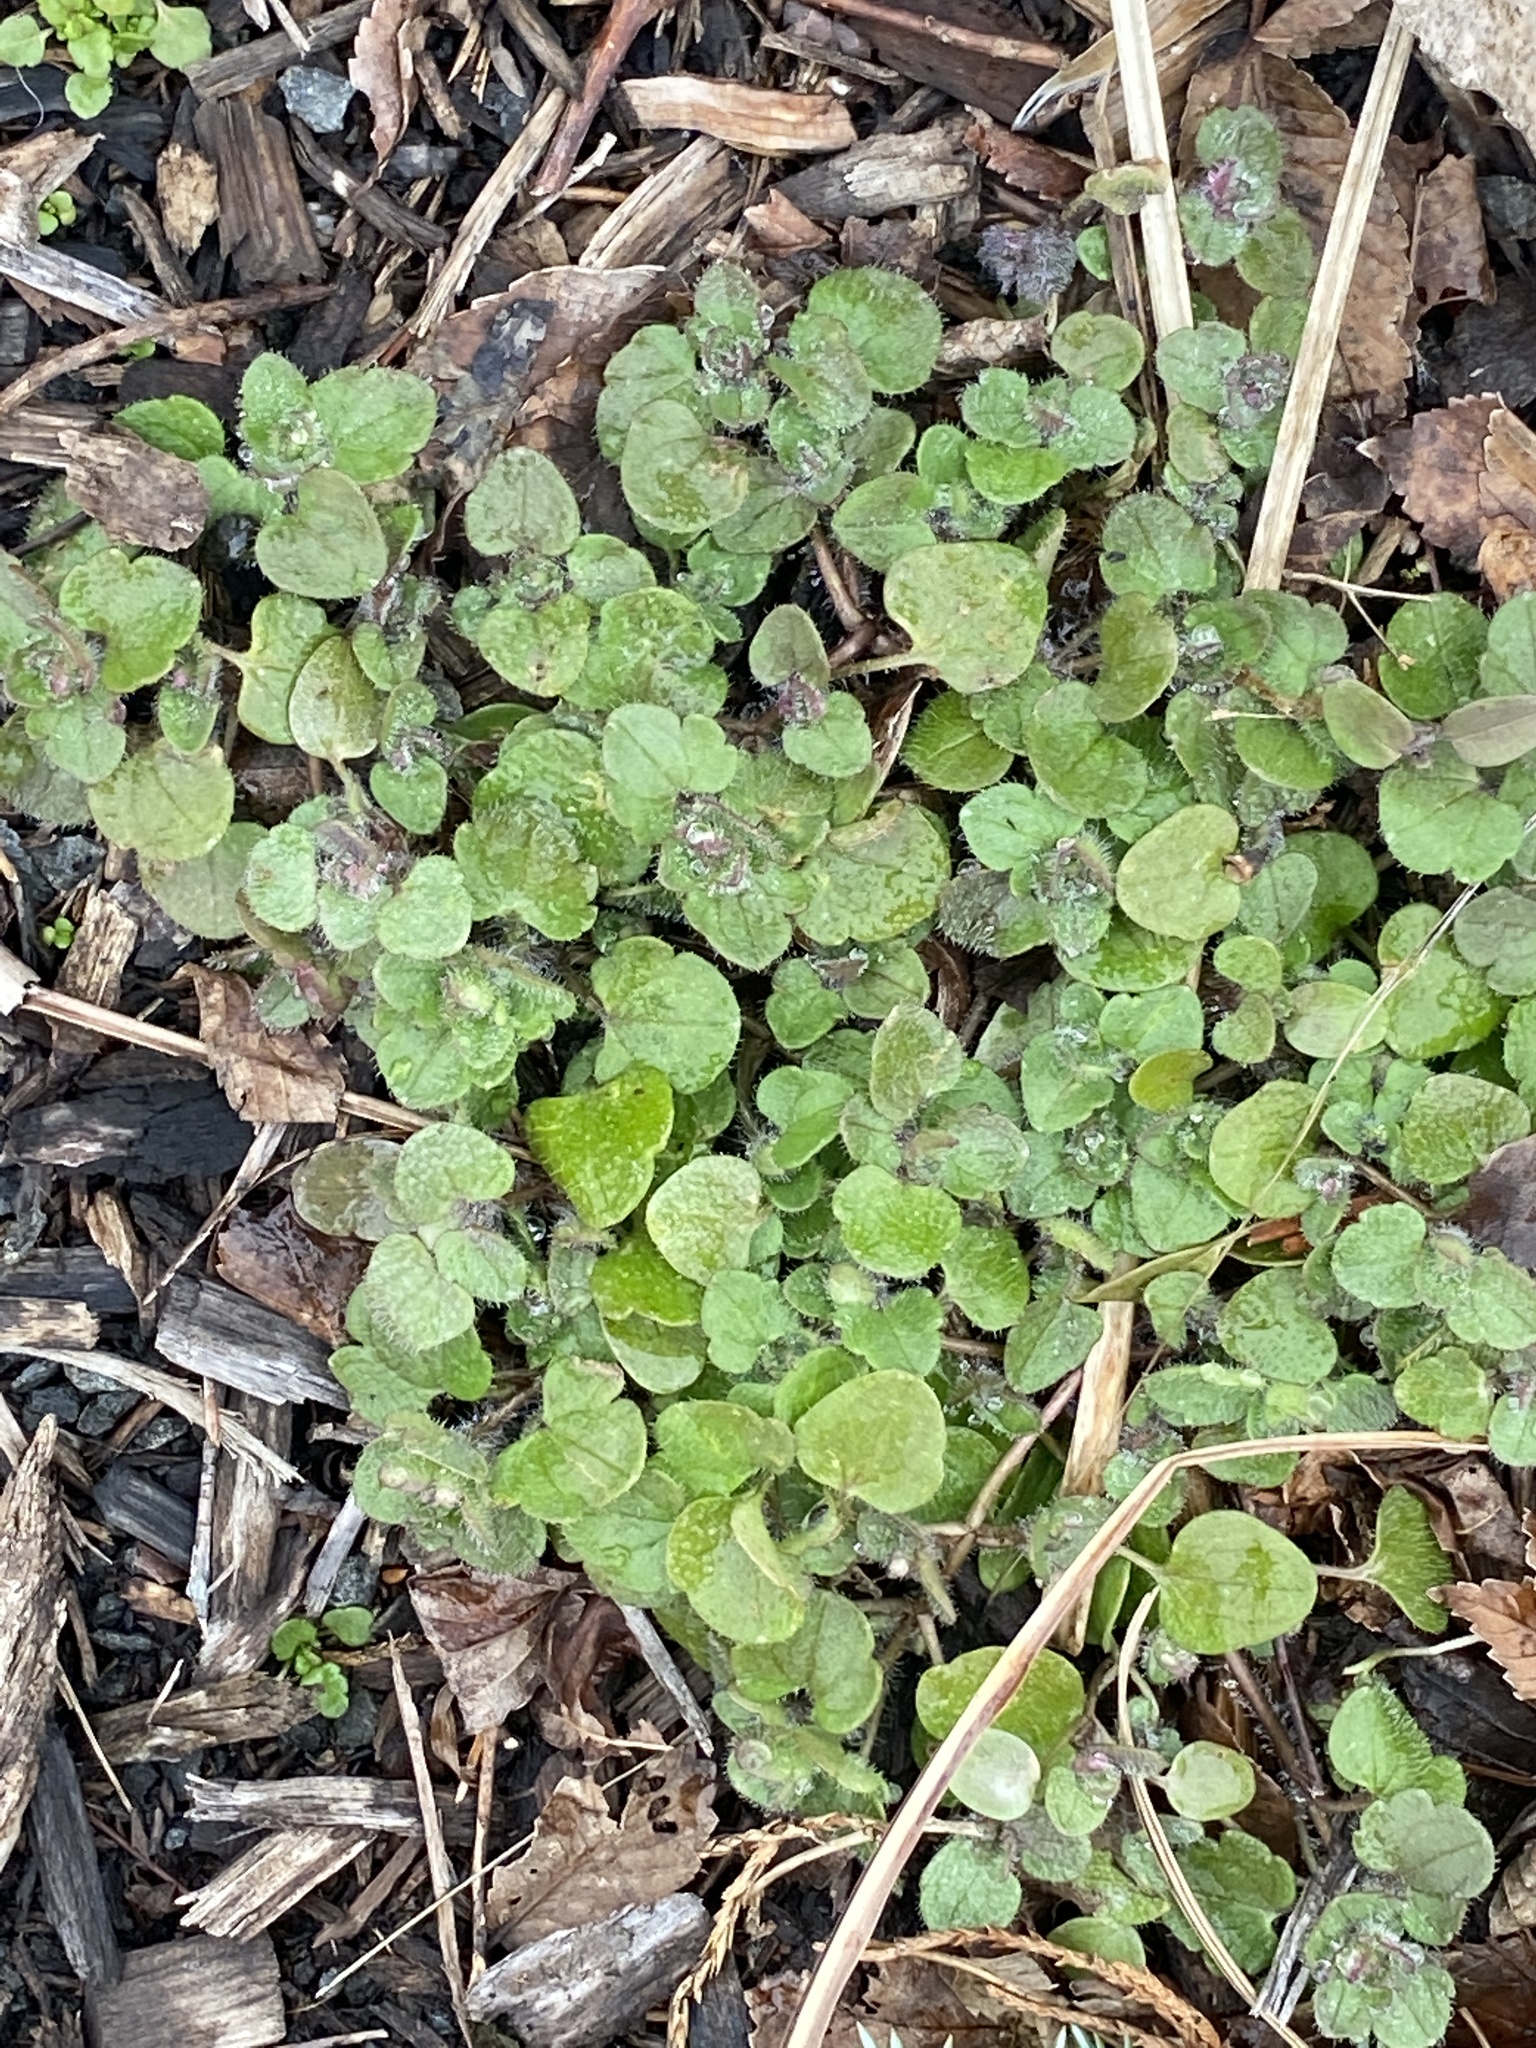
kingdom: Plantae
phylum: Tracheophyta
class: Magnoliopsida
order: Lamiales
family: Plantaginaceae
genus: Veronica
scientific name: Veronica hederifolia
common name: Ivy-leaved speedwell
